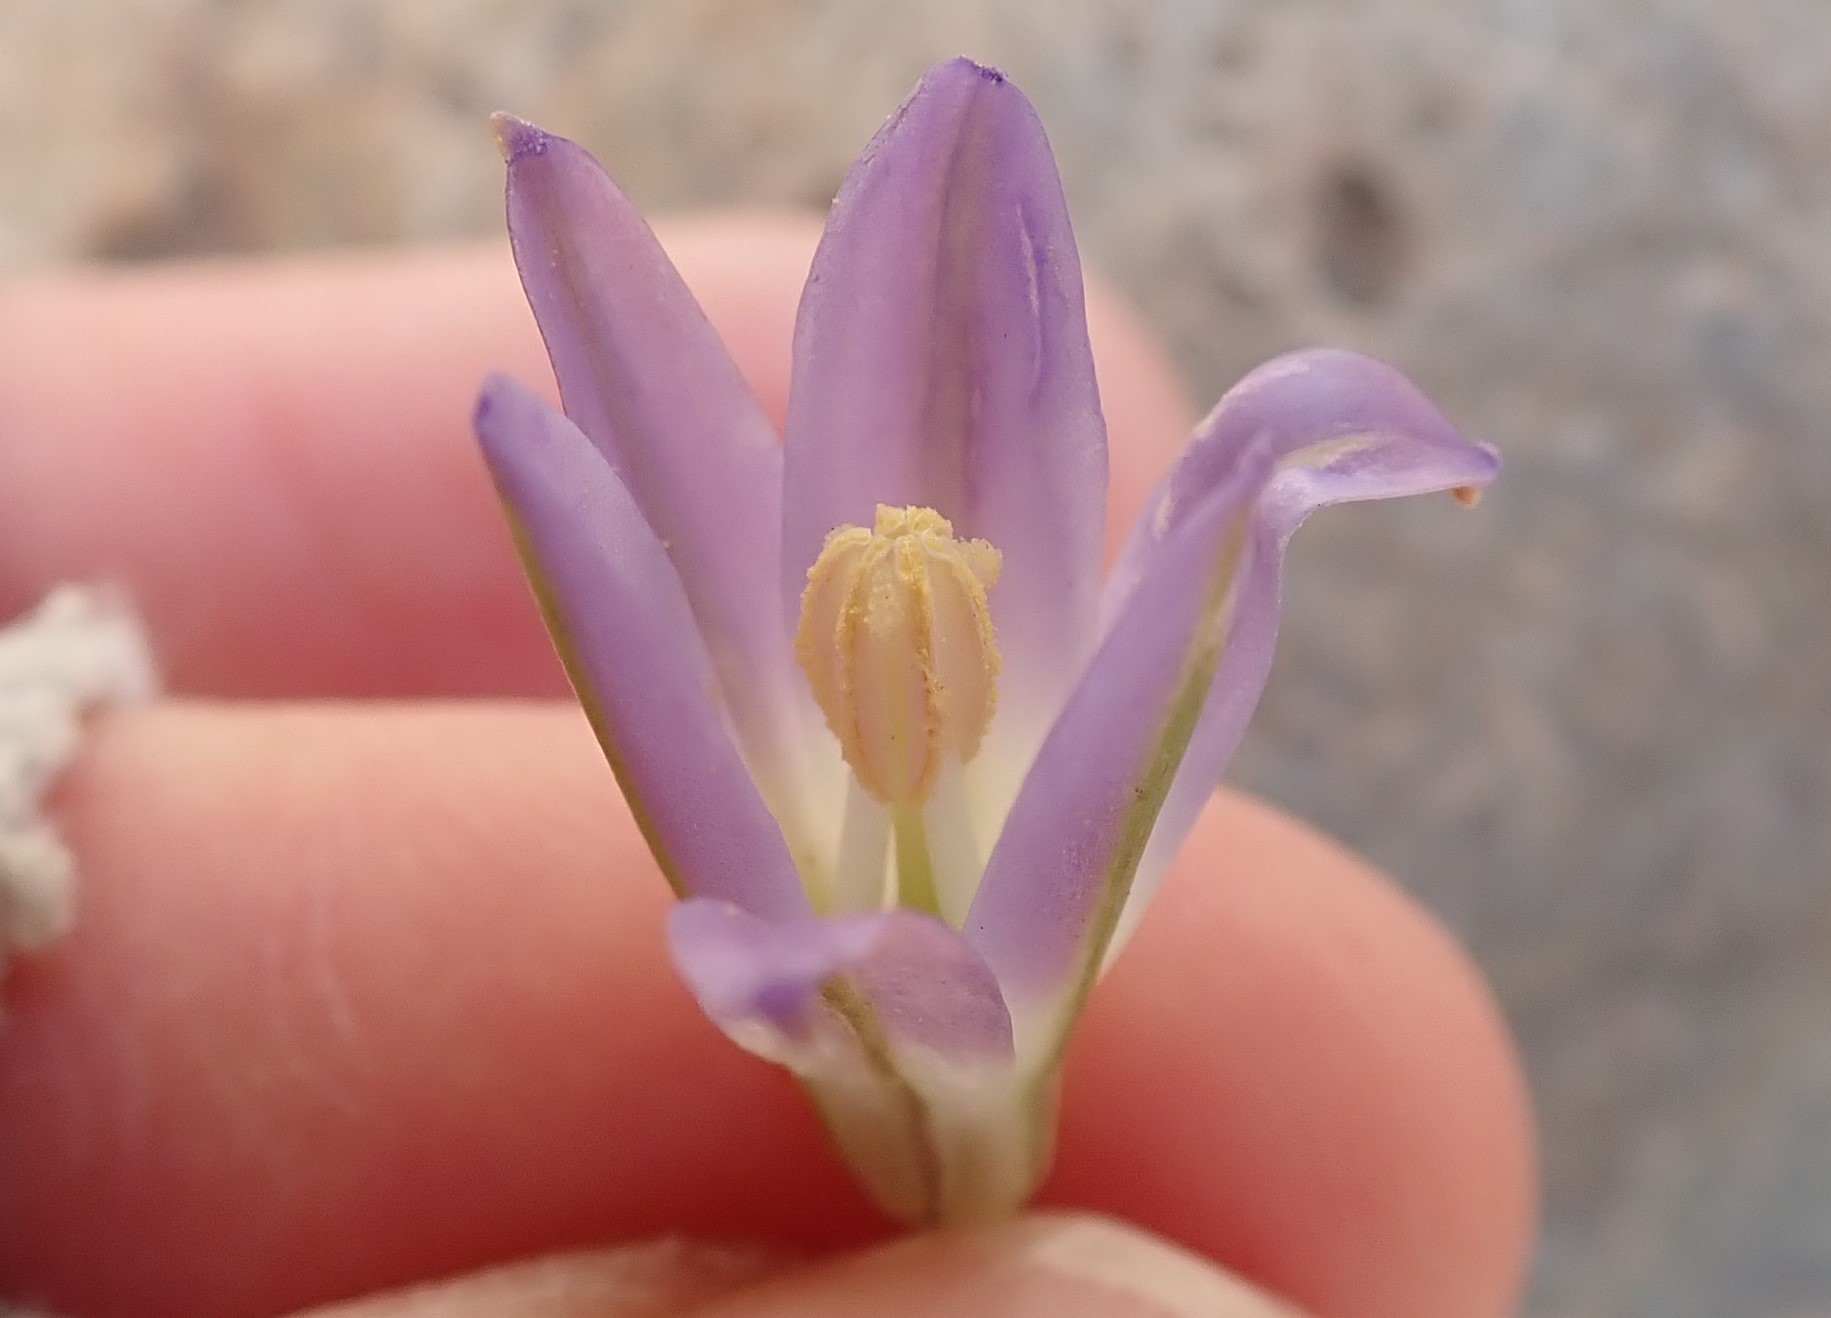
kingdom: Plantae
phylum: Tracheophyta
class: Liliopsida
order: Asparagales
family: Asparagaceae
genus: Brodiaea
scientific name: Brodiaea orcuttii
